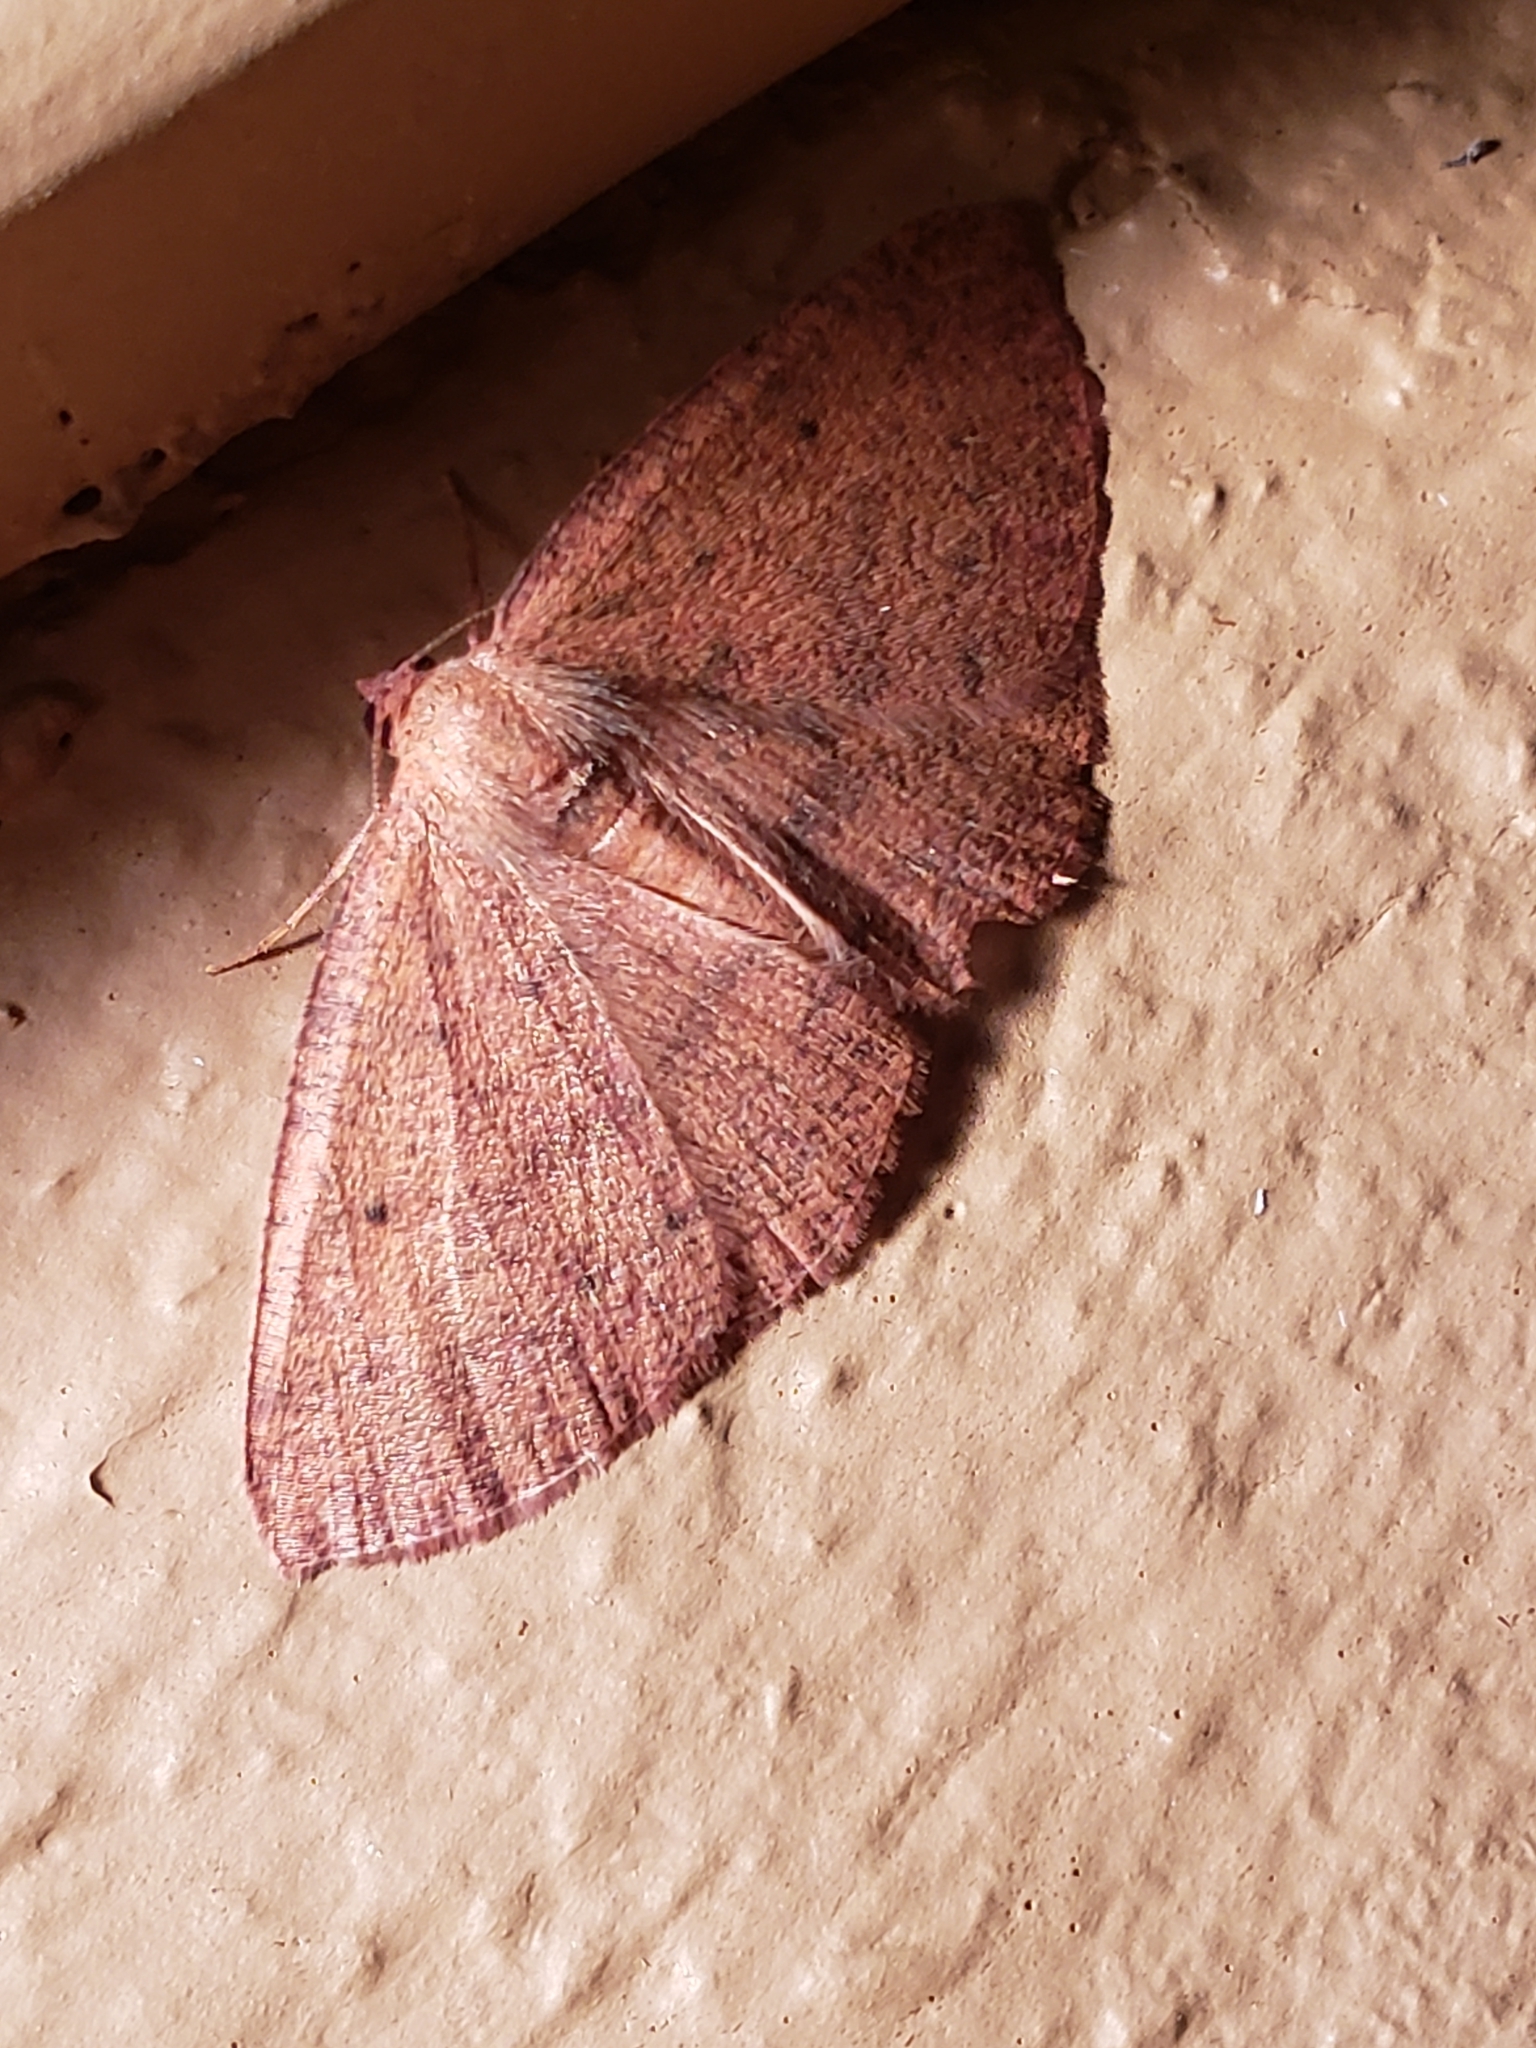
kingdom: Animalia
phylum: Arthropoda
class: Insecta
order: Lepidoptera
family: Geometridae
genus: Ilexia
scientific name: Ilexia intractata
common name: Black-dotted ruddy moth
